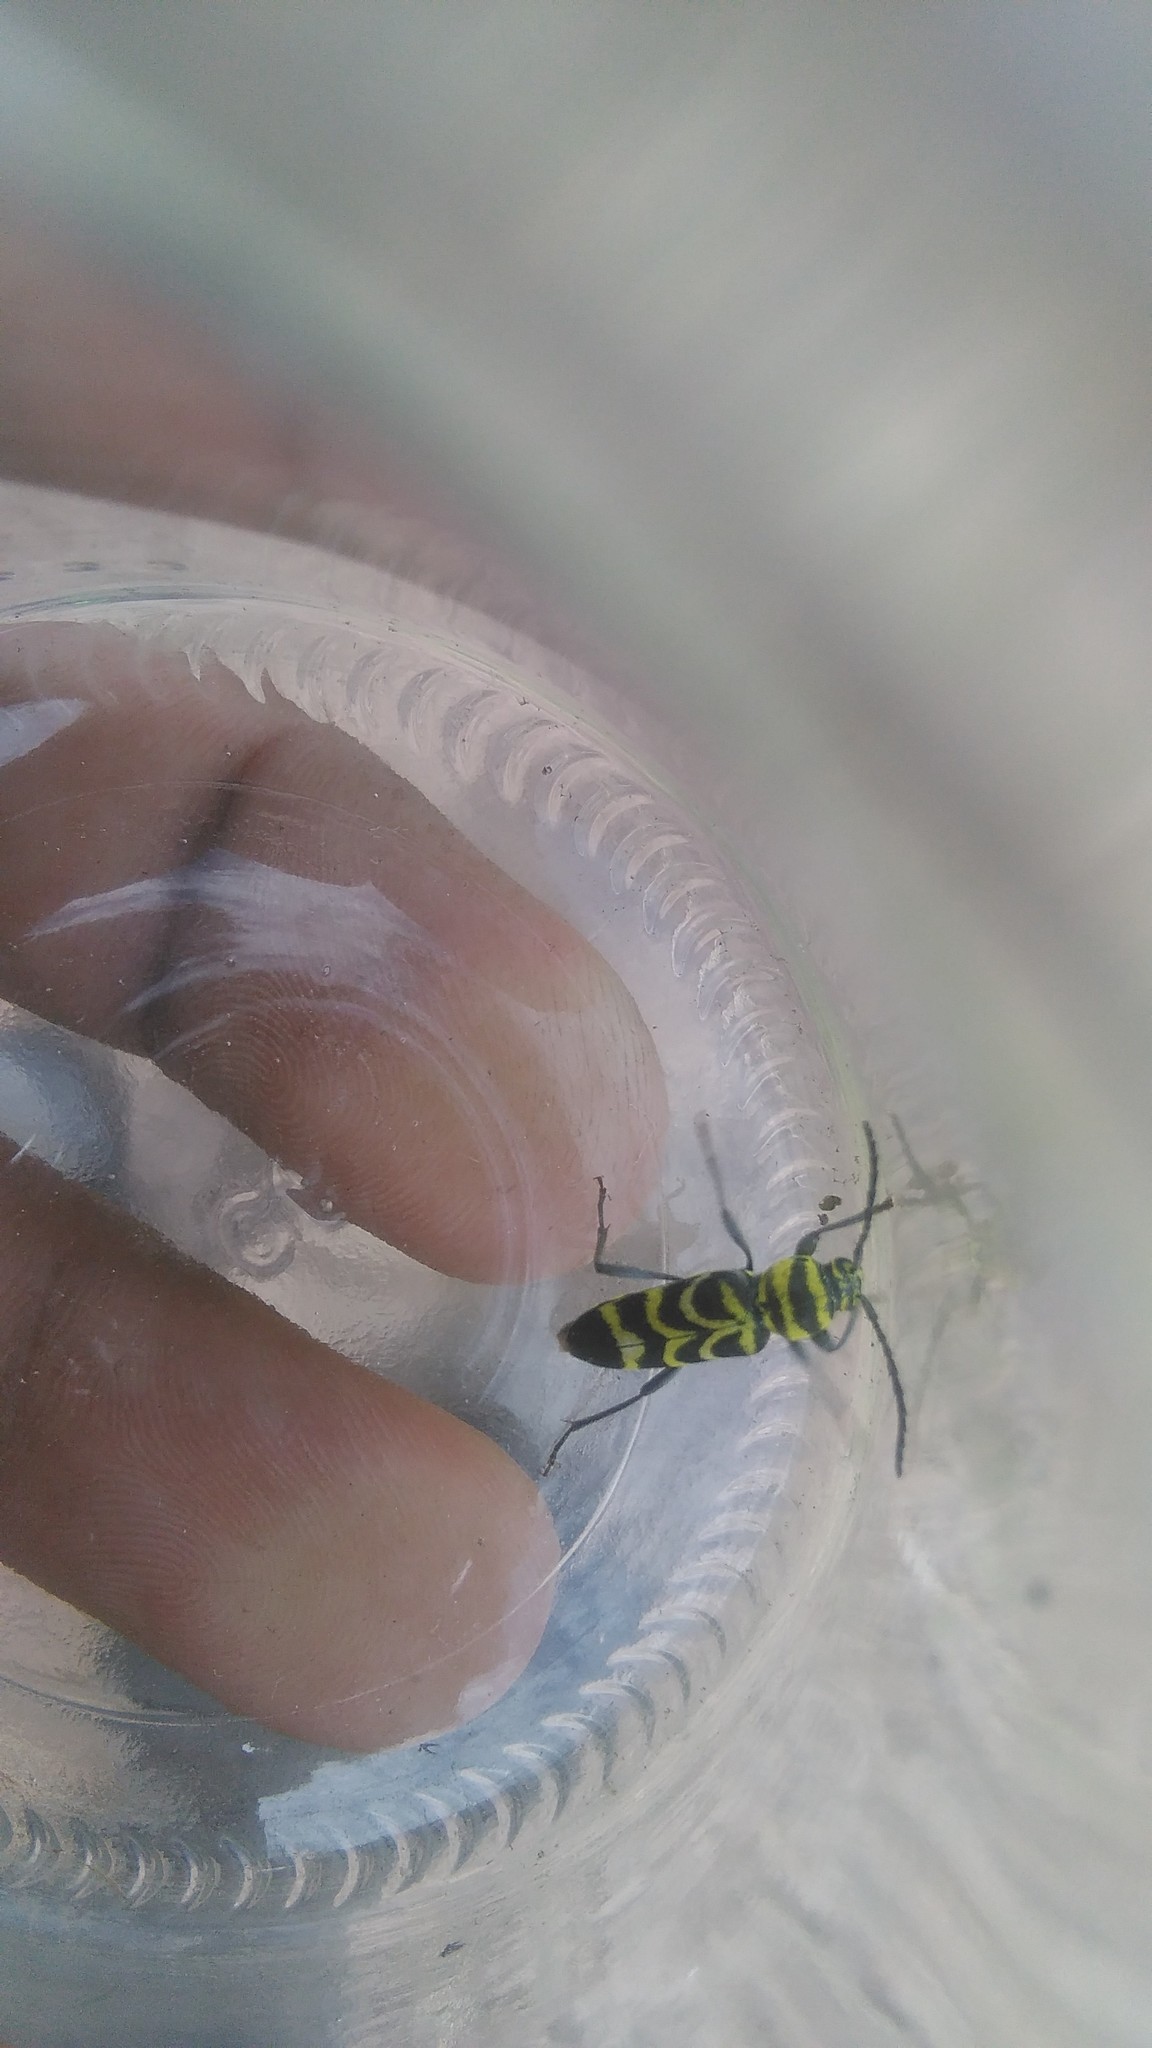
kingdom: Animalia
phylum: Arthropoda
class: Insecta
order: Coleoptera
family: Cerambycidae
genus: Megacyllene
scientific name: Megacyllene insignita
